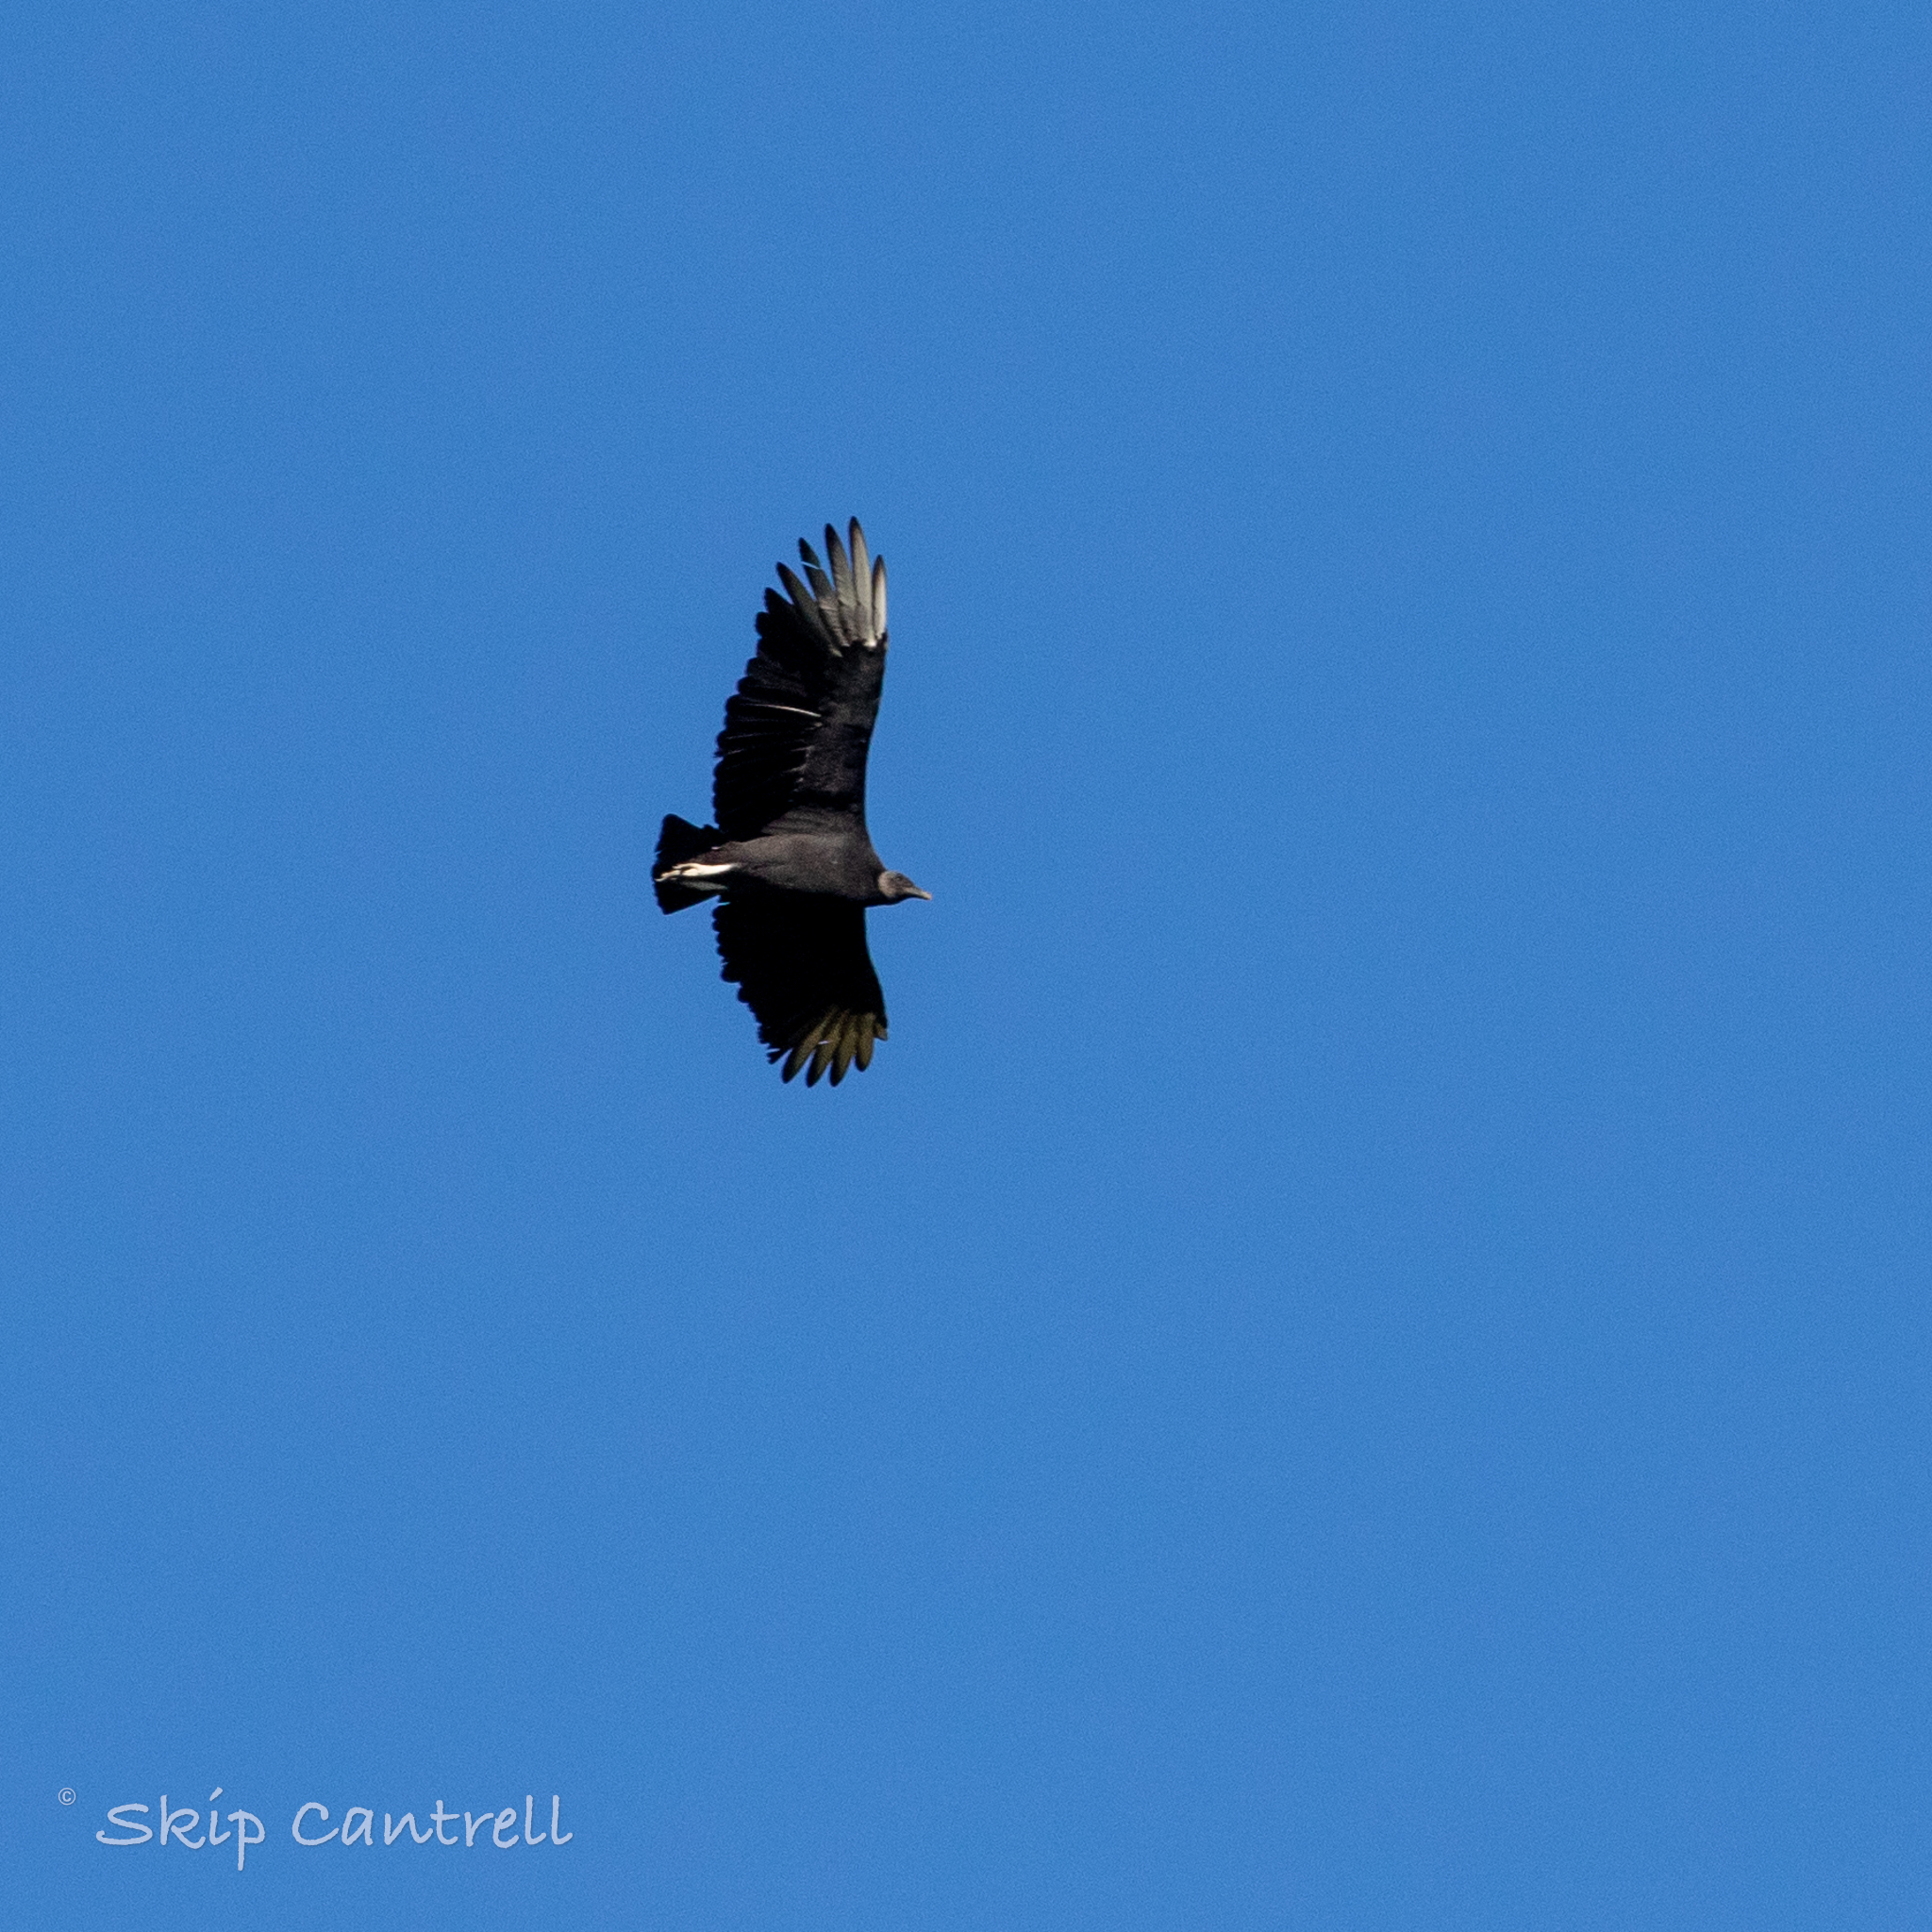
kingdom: Animalia
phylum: Chordata
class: Aves
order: Accipitriformes
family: Cathartidae
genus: Coragyps
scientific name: Coragyps atratus
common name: Black vulture
